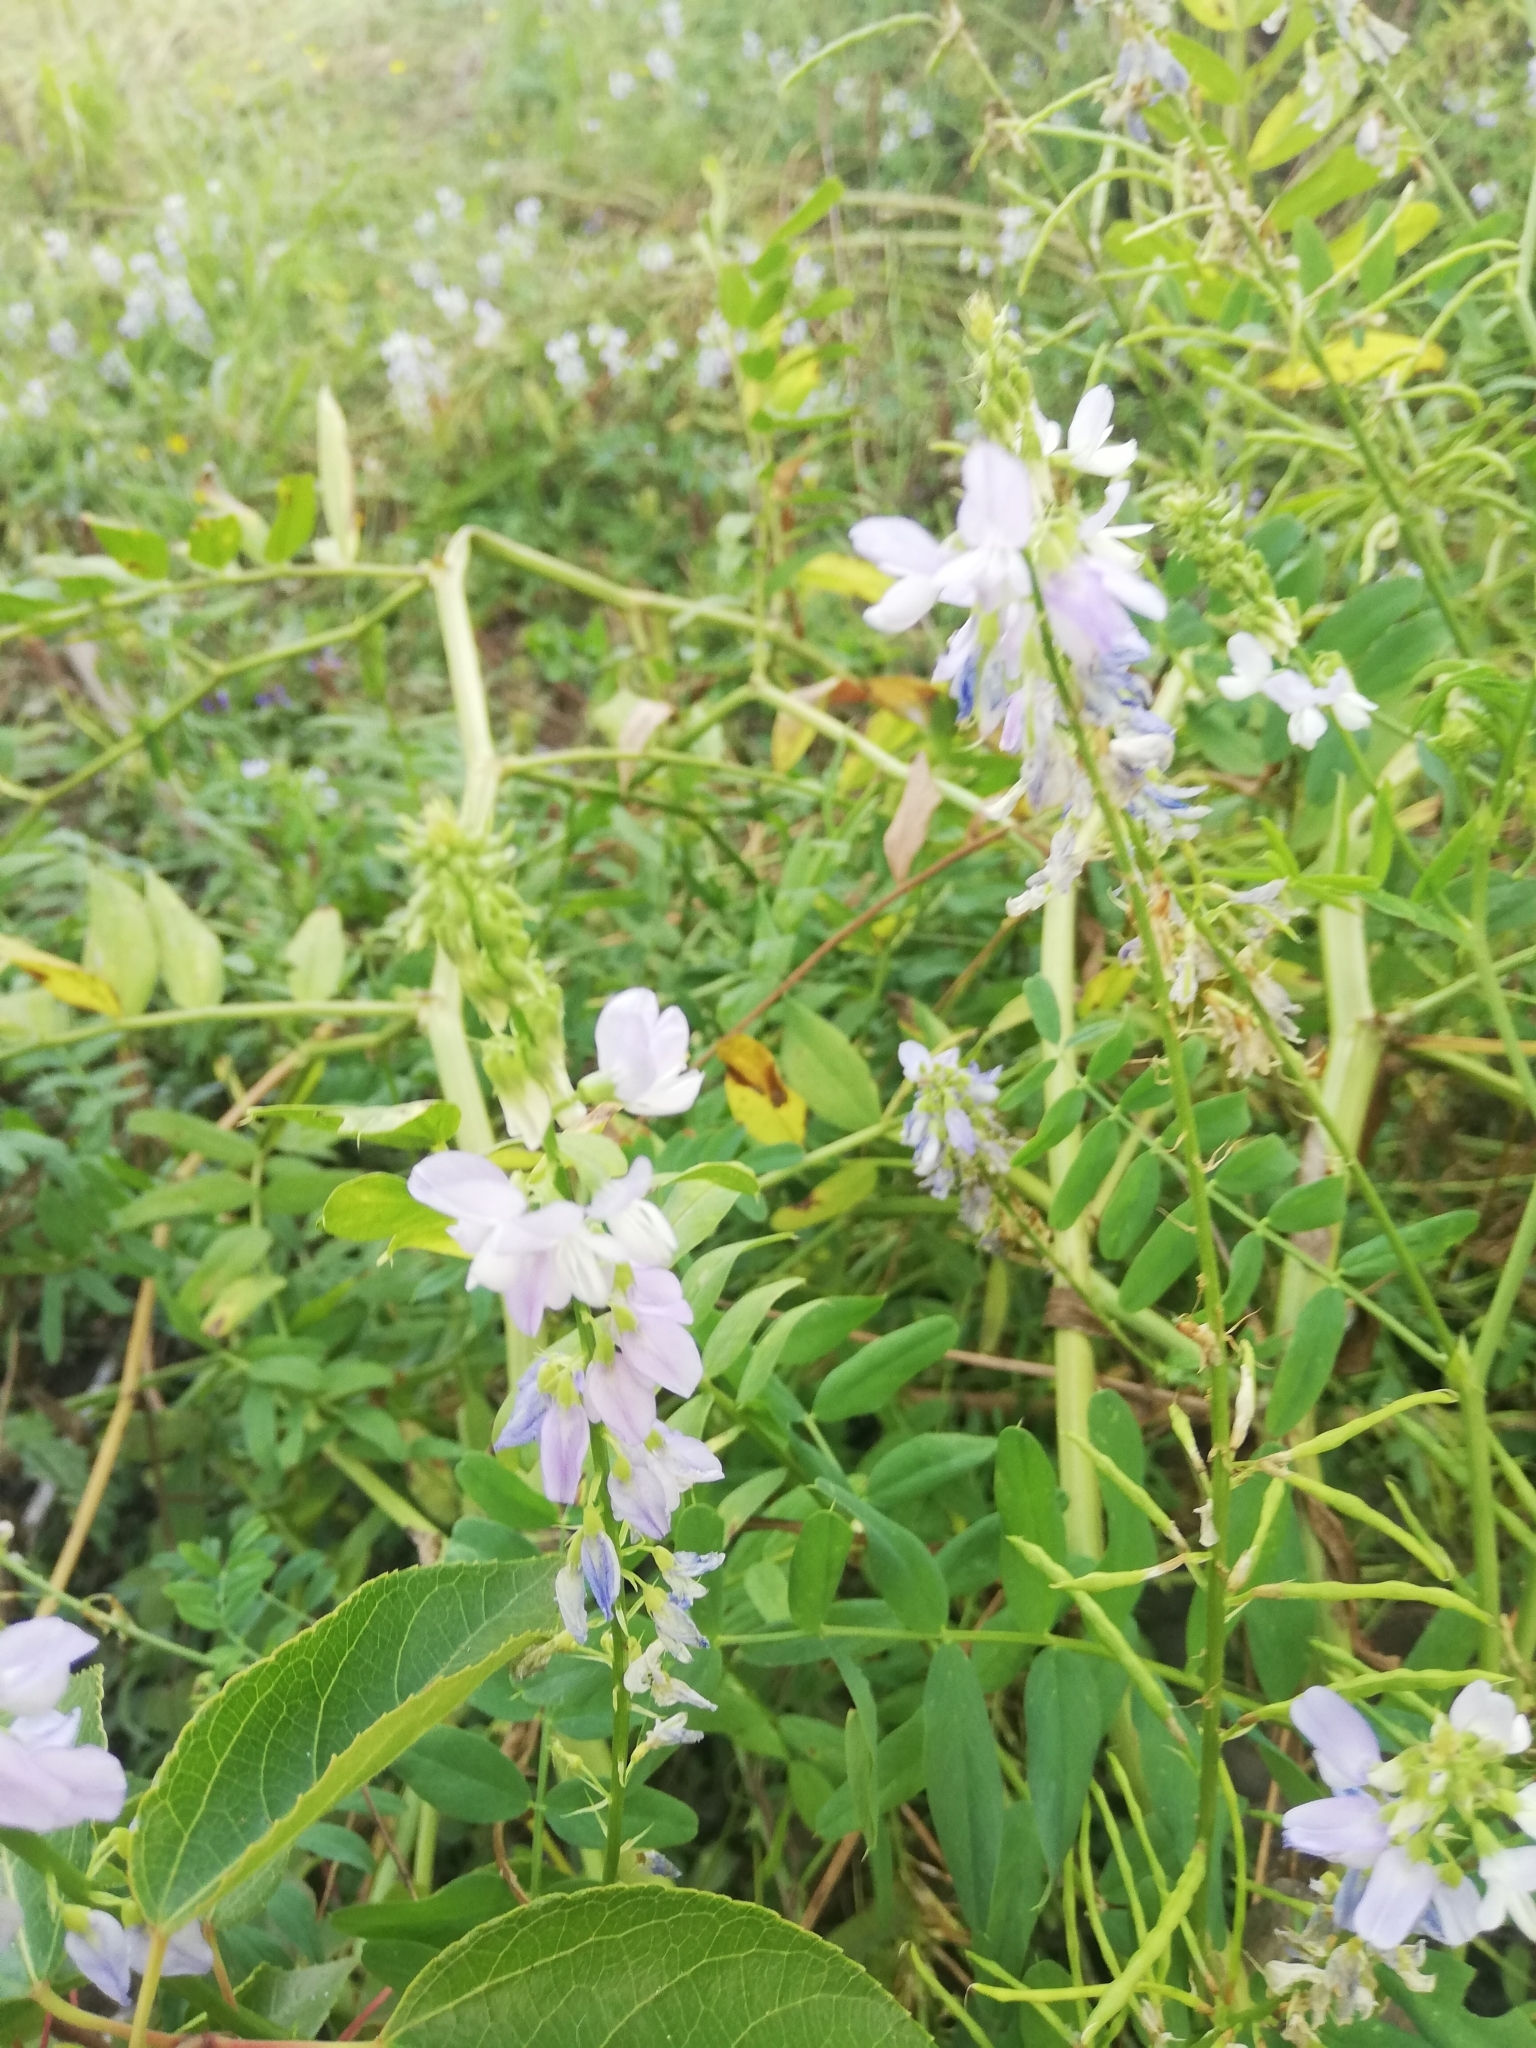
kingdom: Plantae
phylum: Tracheophyta
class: Magnoliopsida
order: Fabales
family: Fabaceae
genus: Galega
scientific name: Galega officinalis
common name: Goat's-rue
